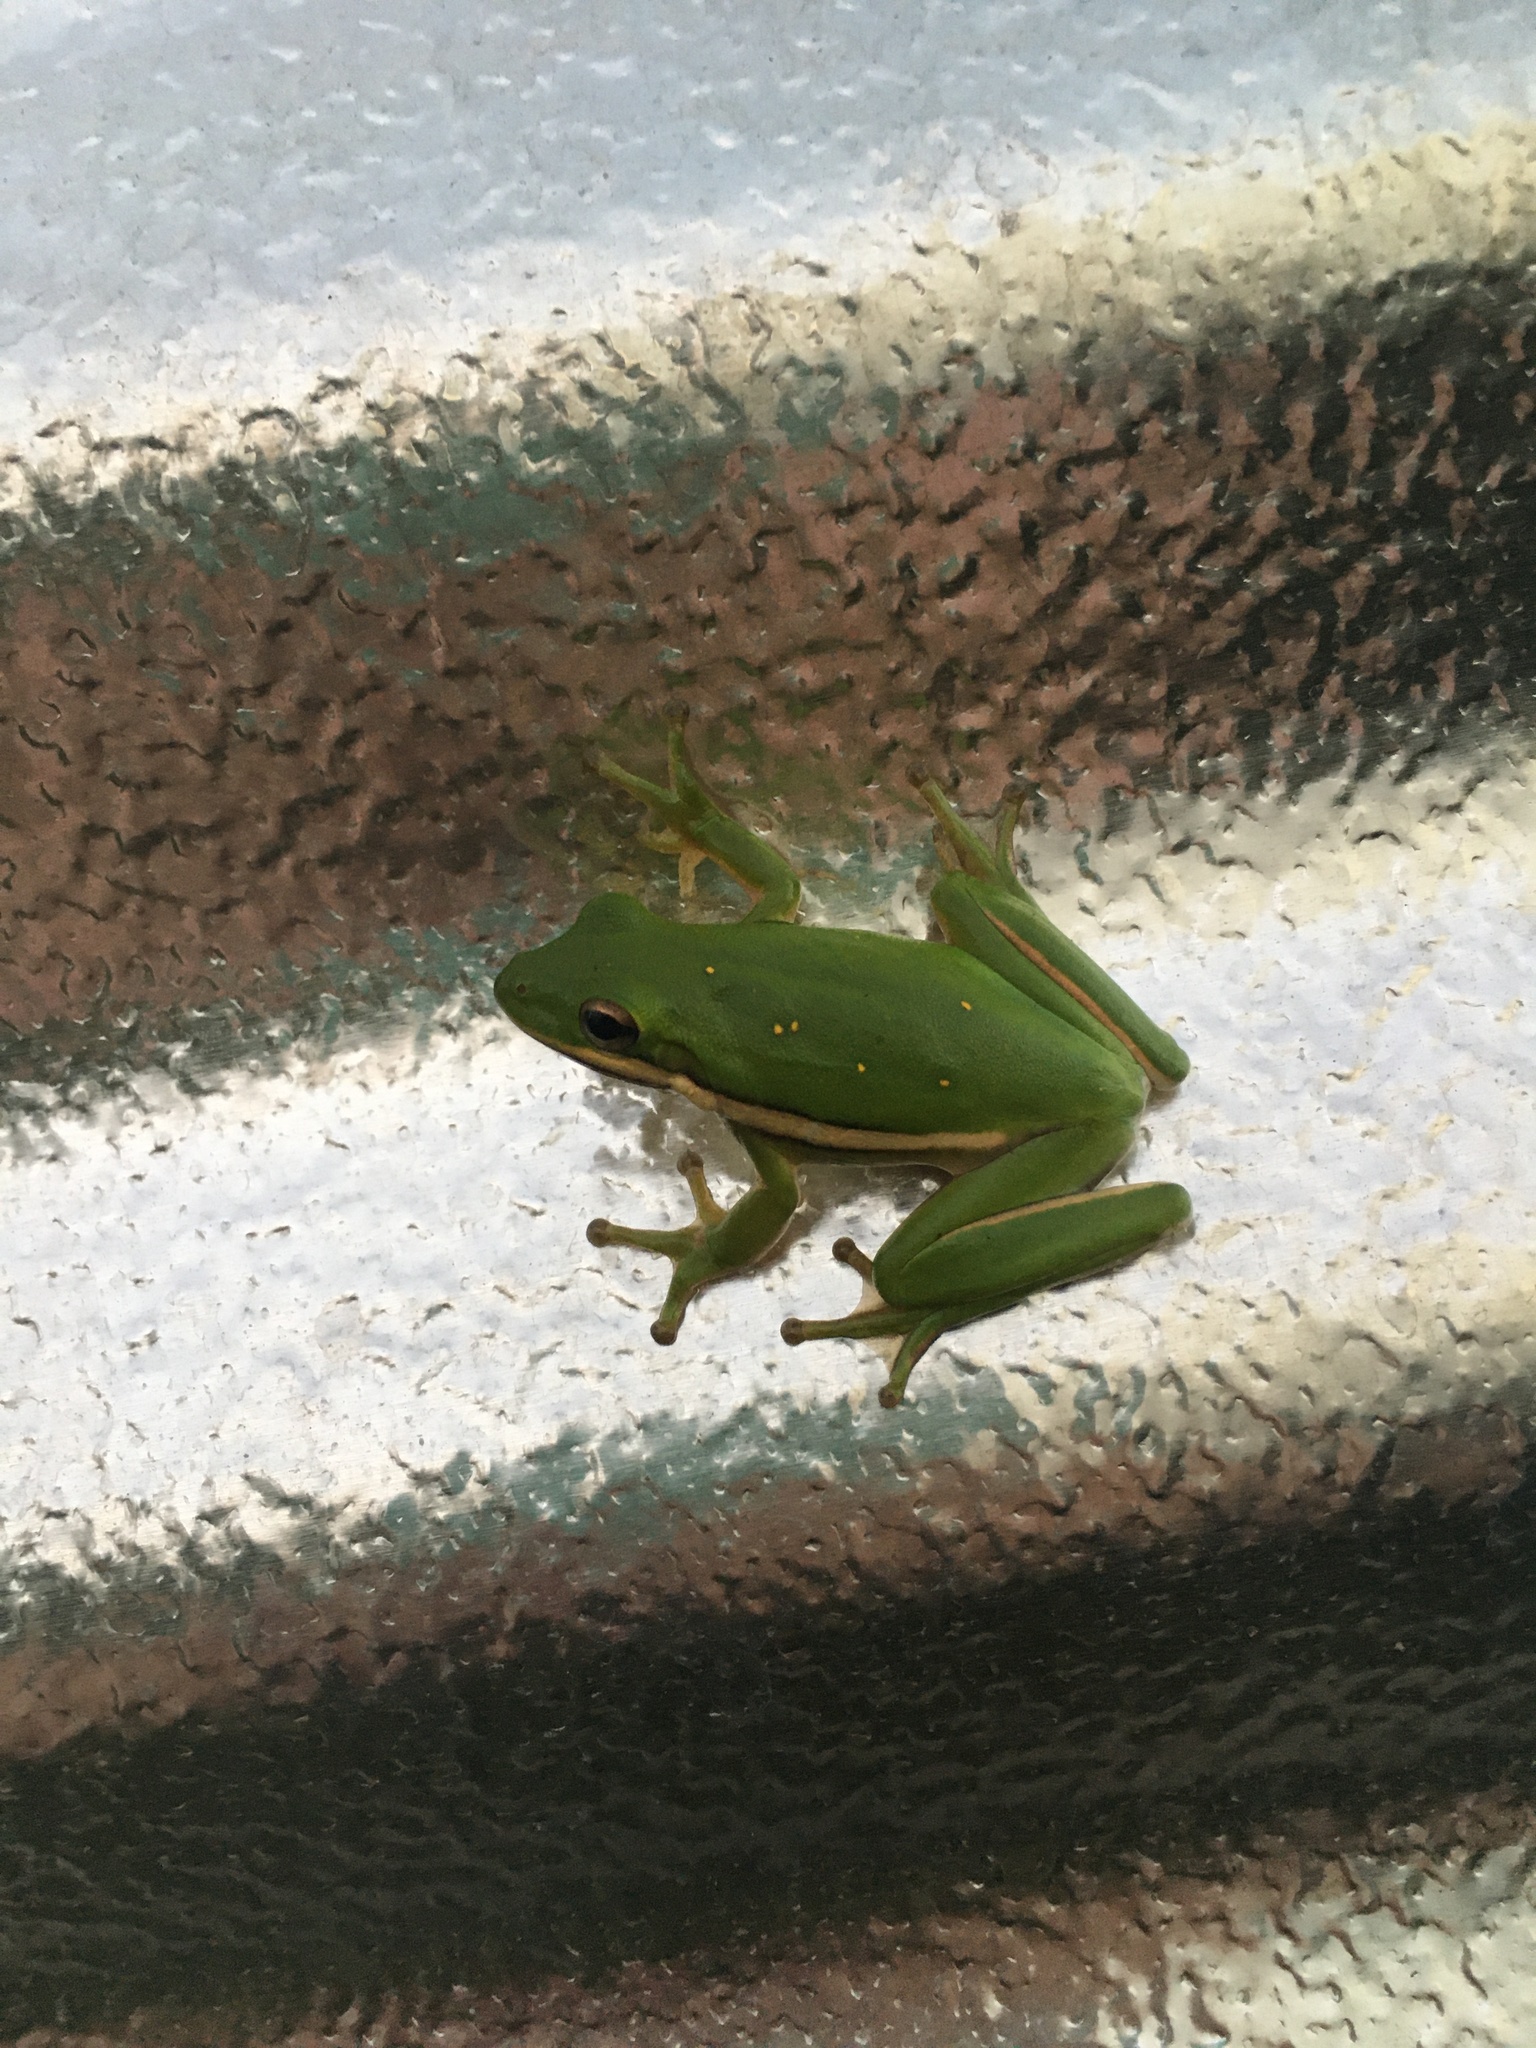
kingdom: Animalia
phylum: Chordata
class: Amphibia
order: Anura
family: Hylidae
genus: Dryophytes
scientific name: Dryophytes cinereus
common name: Green treefrog
